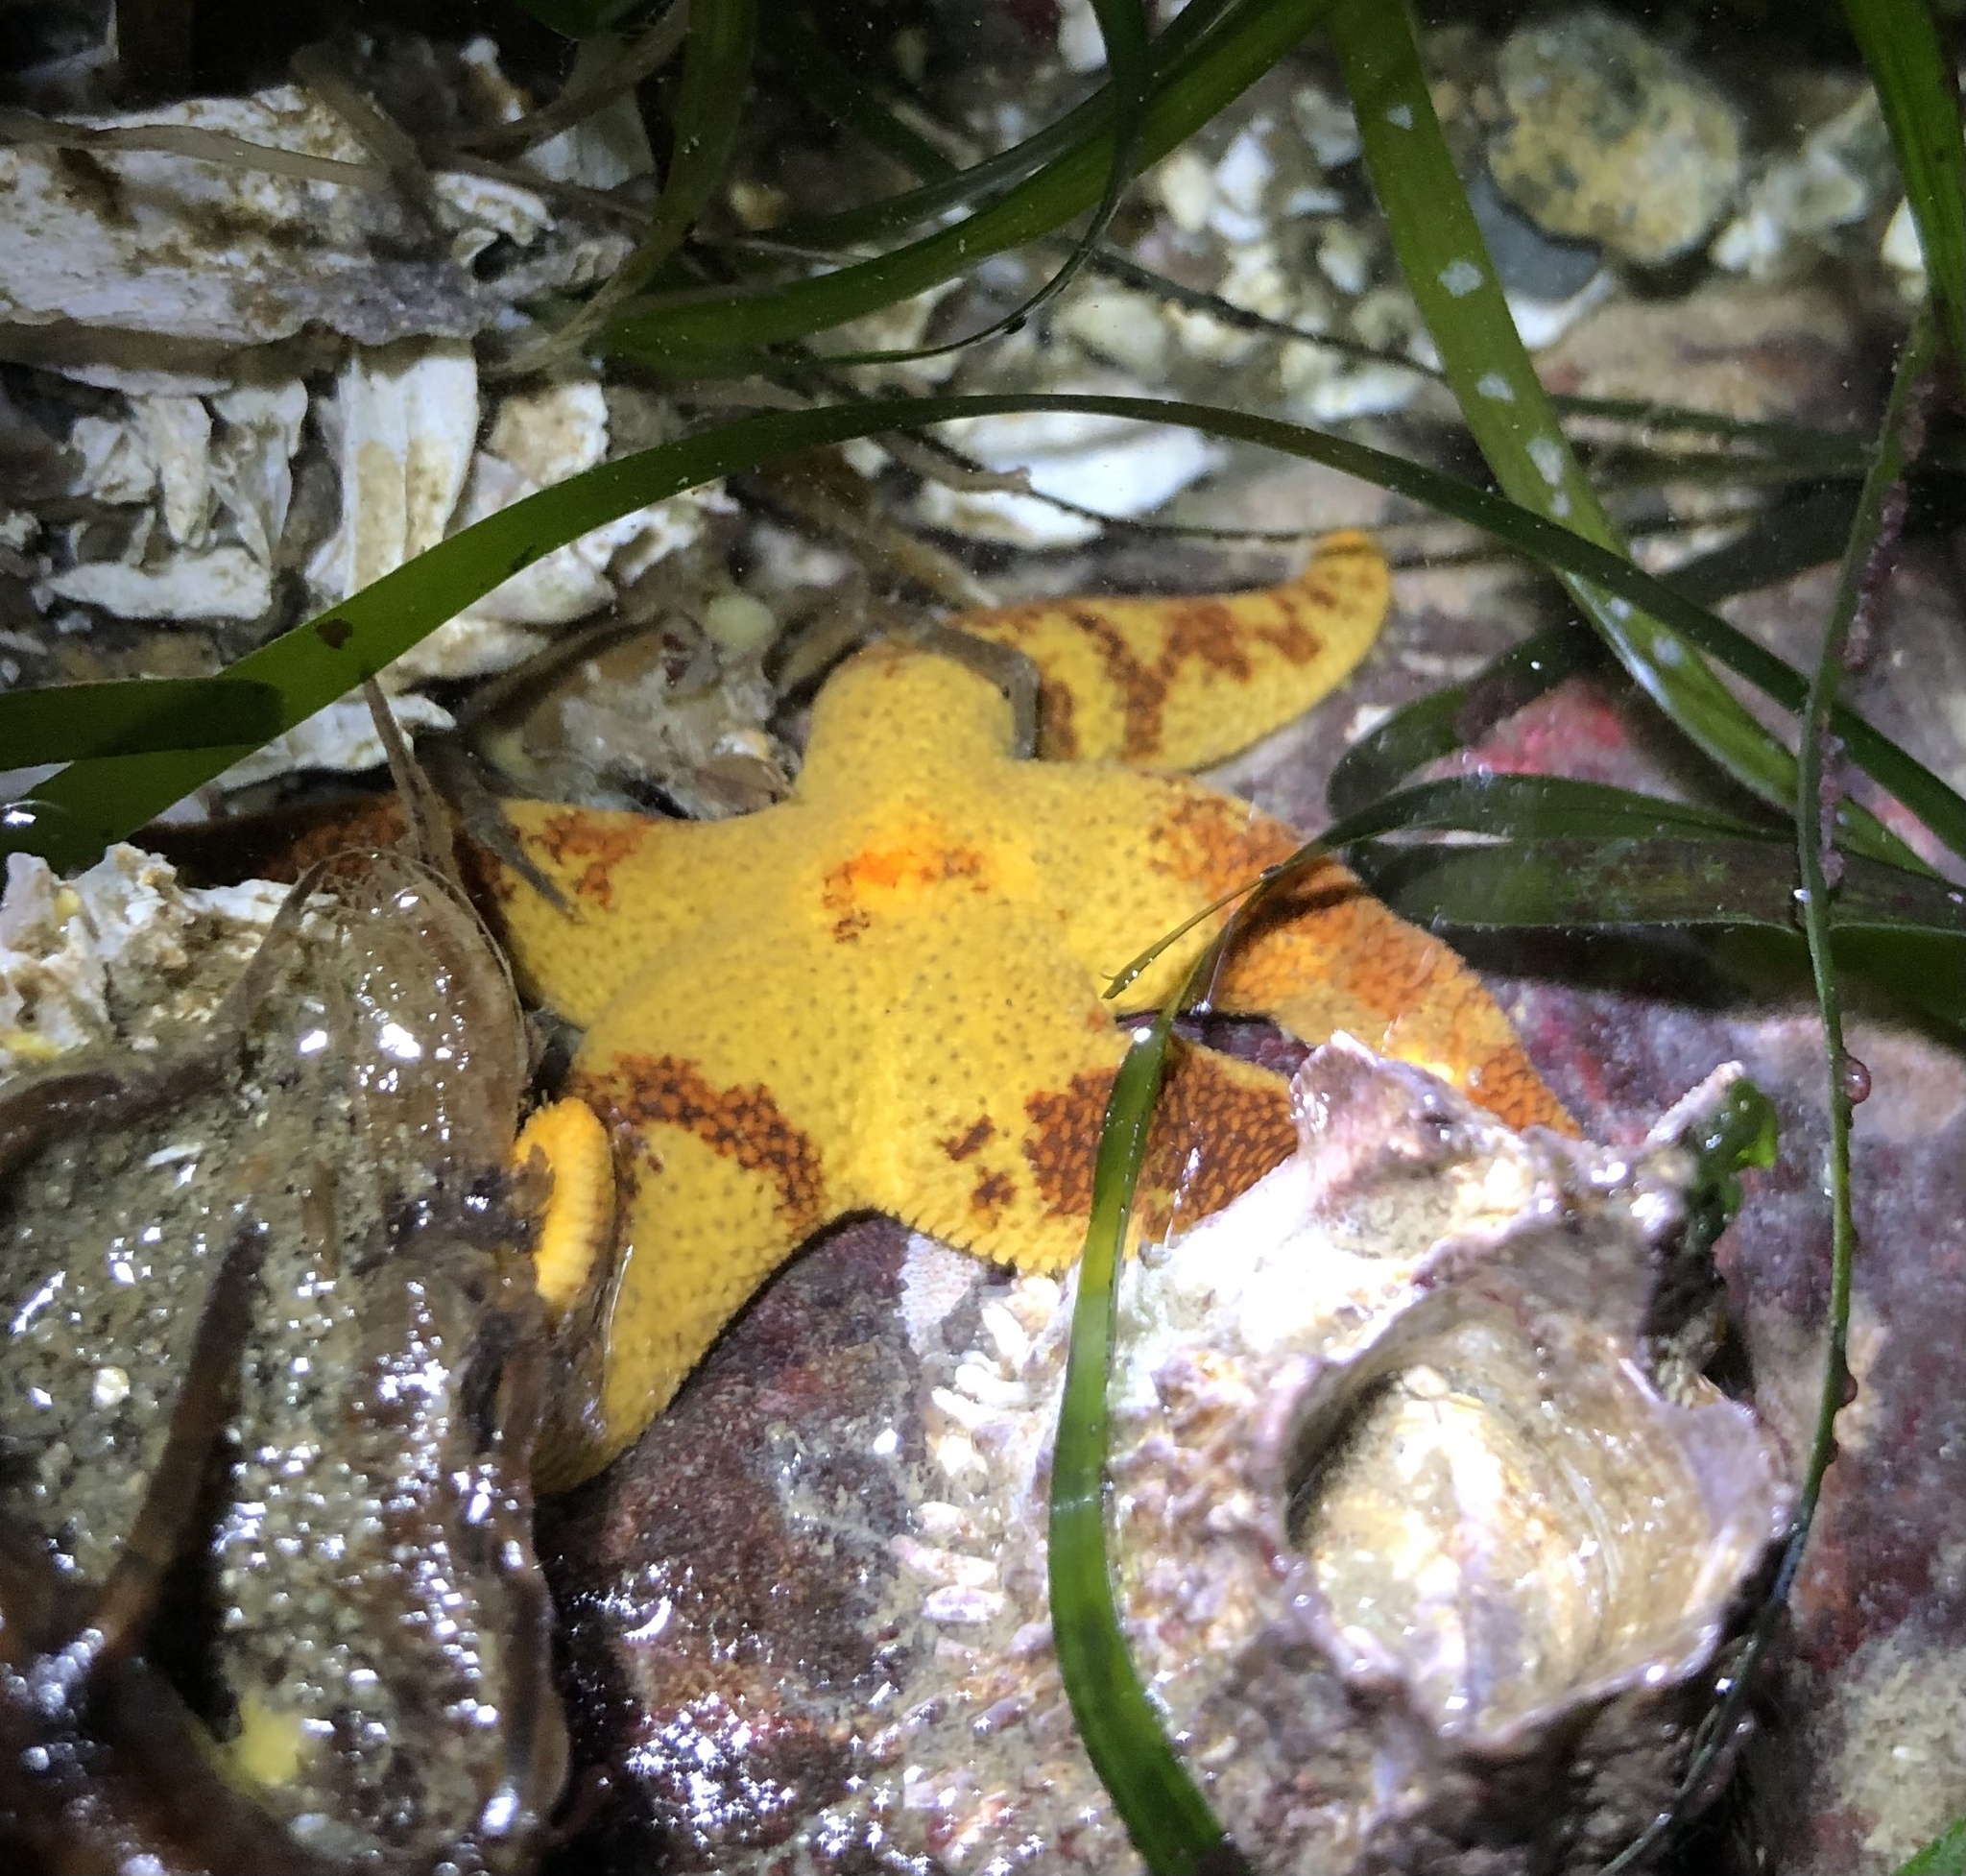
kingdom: Animalia
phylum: Echinodermata
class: Asteroidea
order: Spinulosida
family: Echinasteridae
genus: Henricia
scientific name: Henricia pumila
